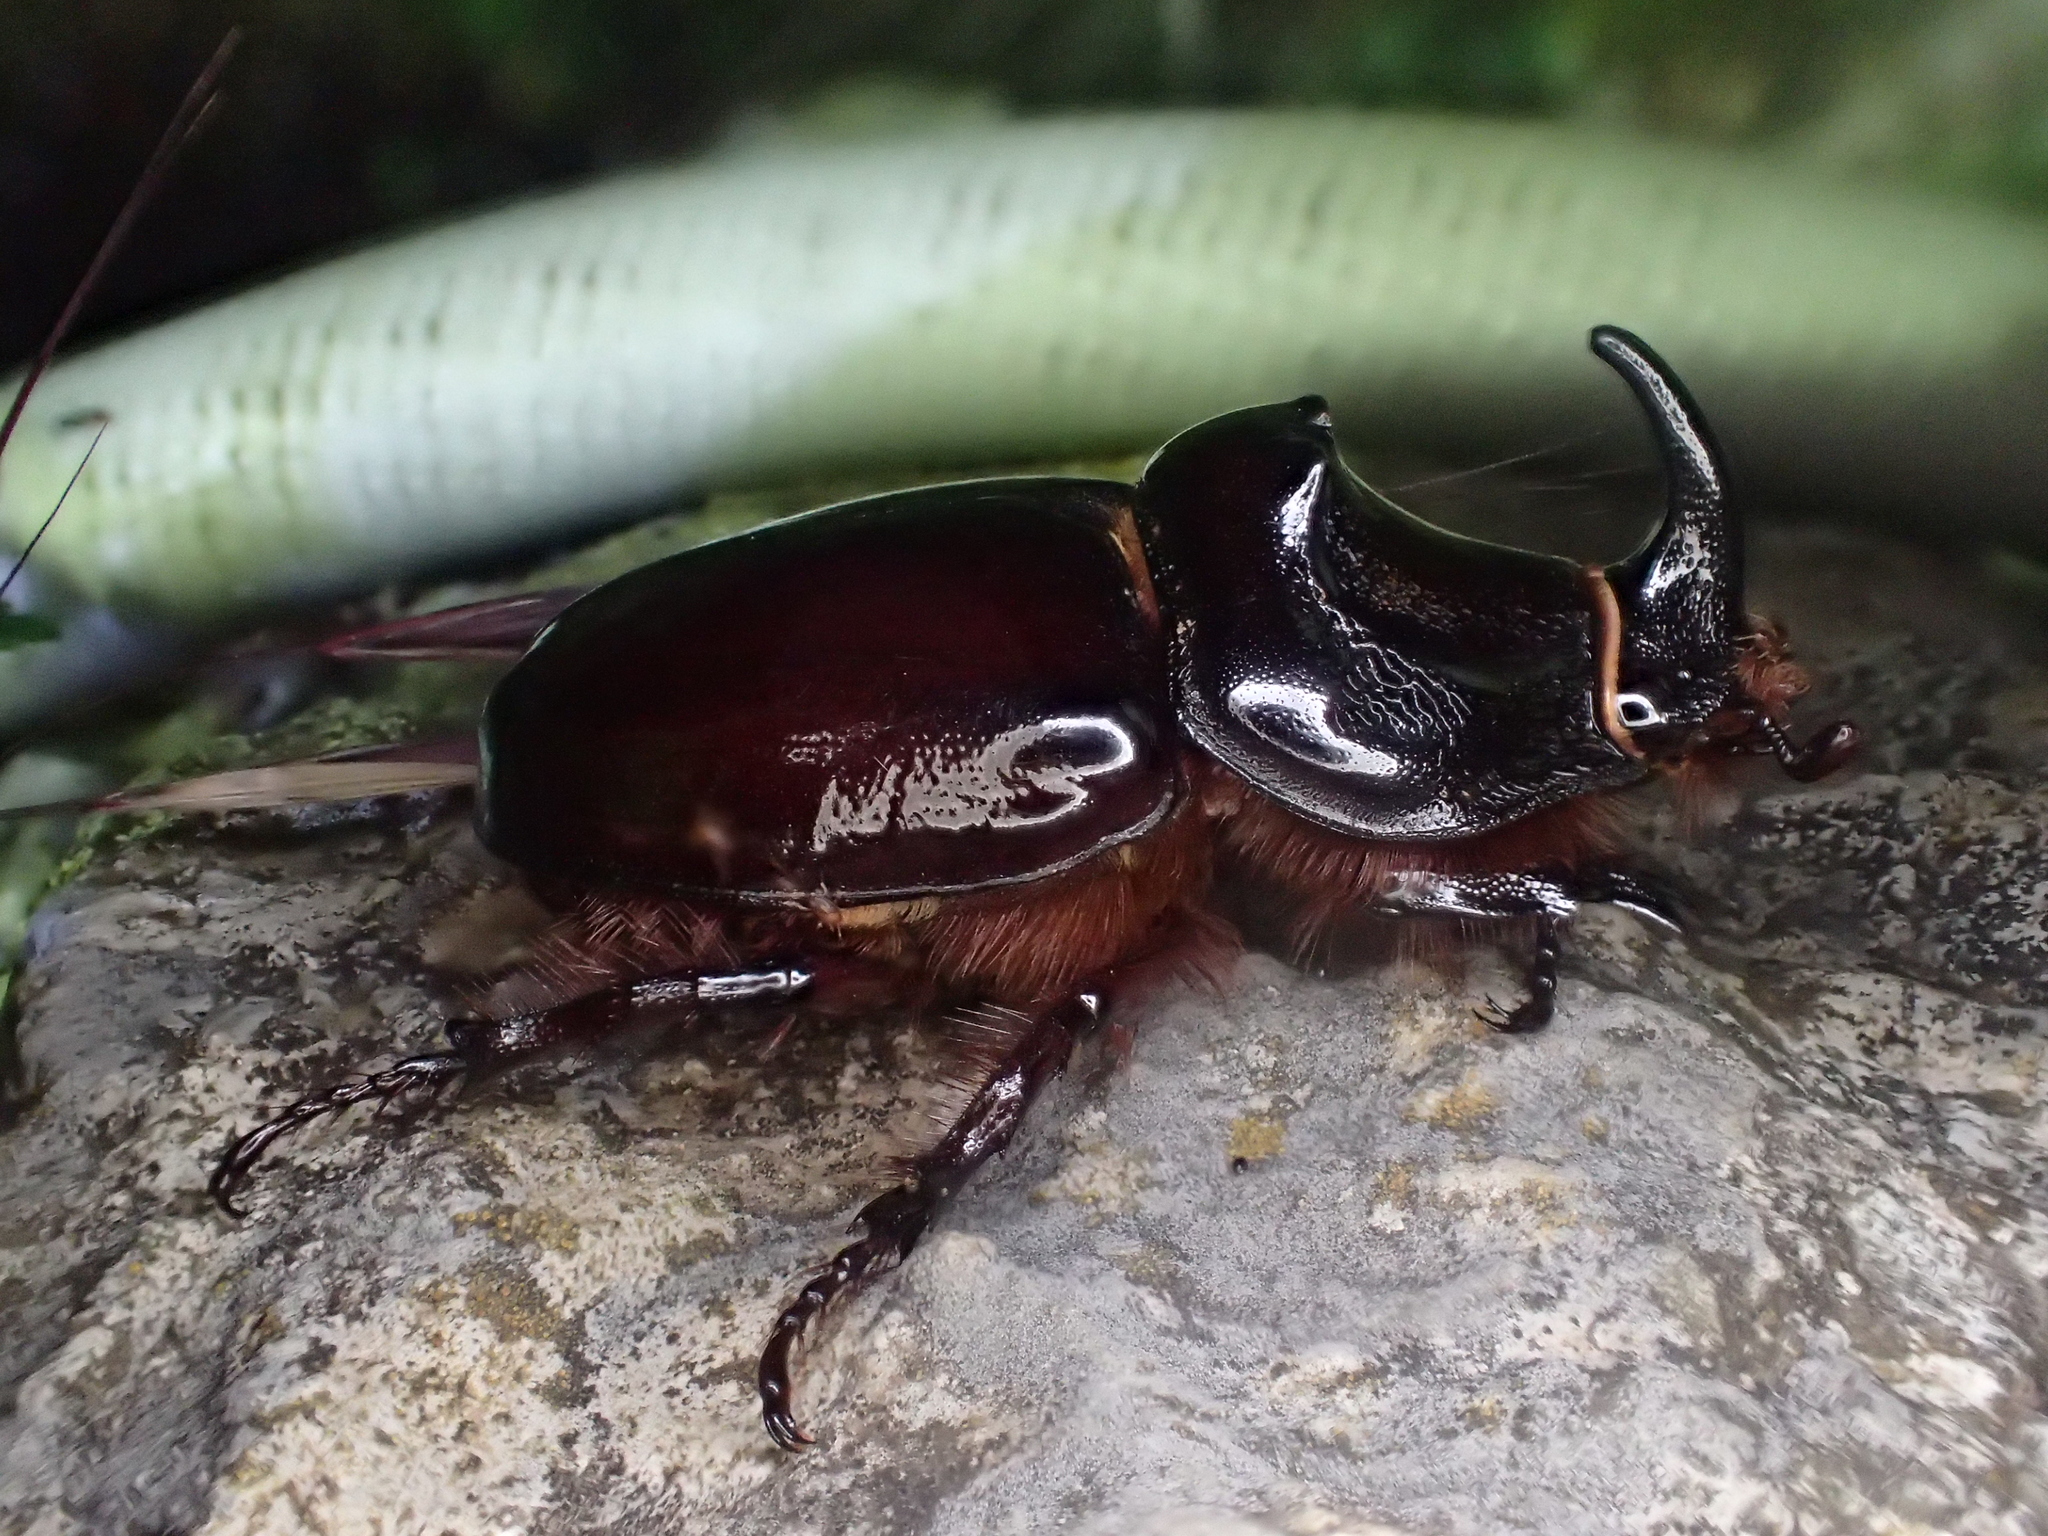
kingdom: Animalia
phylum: Arthropoda
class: Insecta
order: Coleoptera
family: Scarabaeidae
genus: Oryctes
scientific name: Oryctes nasicornis
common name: European rhinoceros beetle
